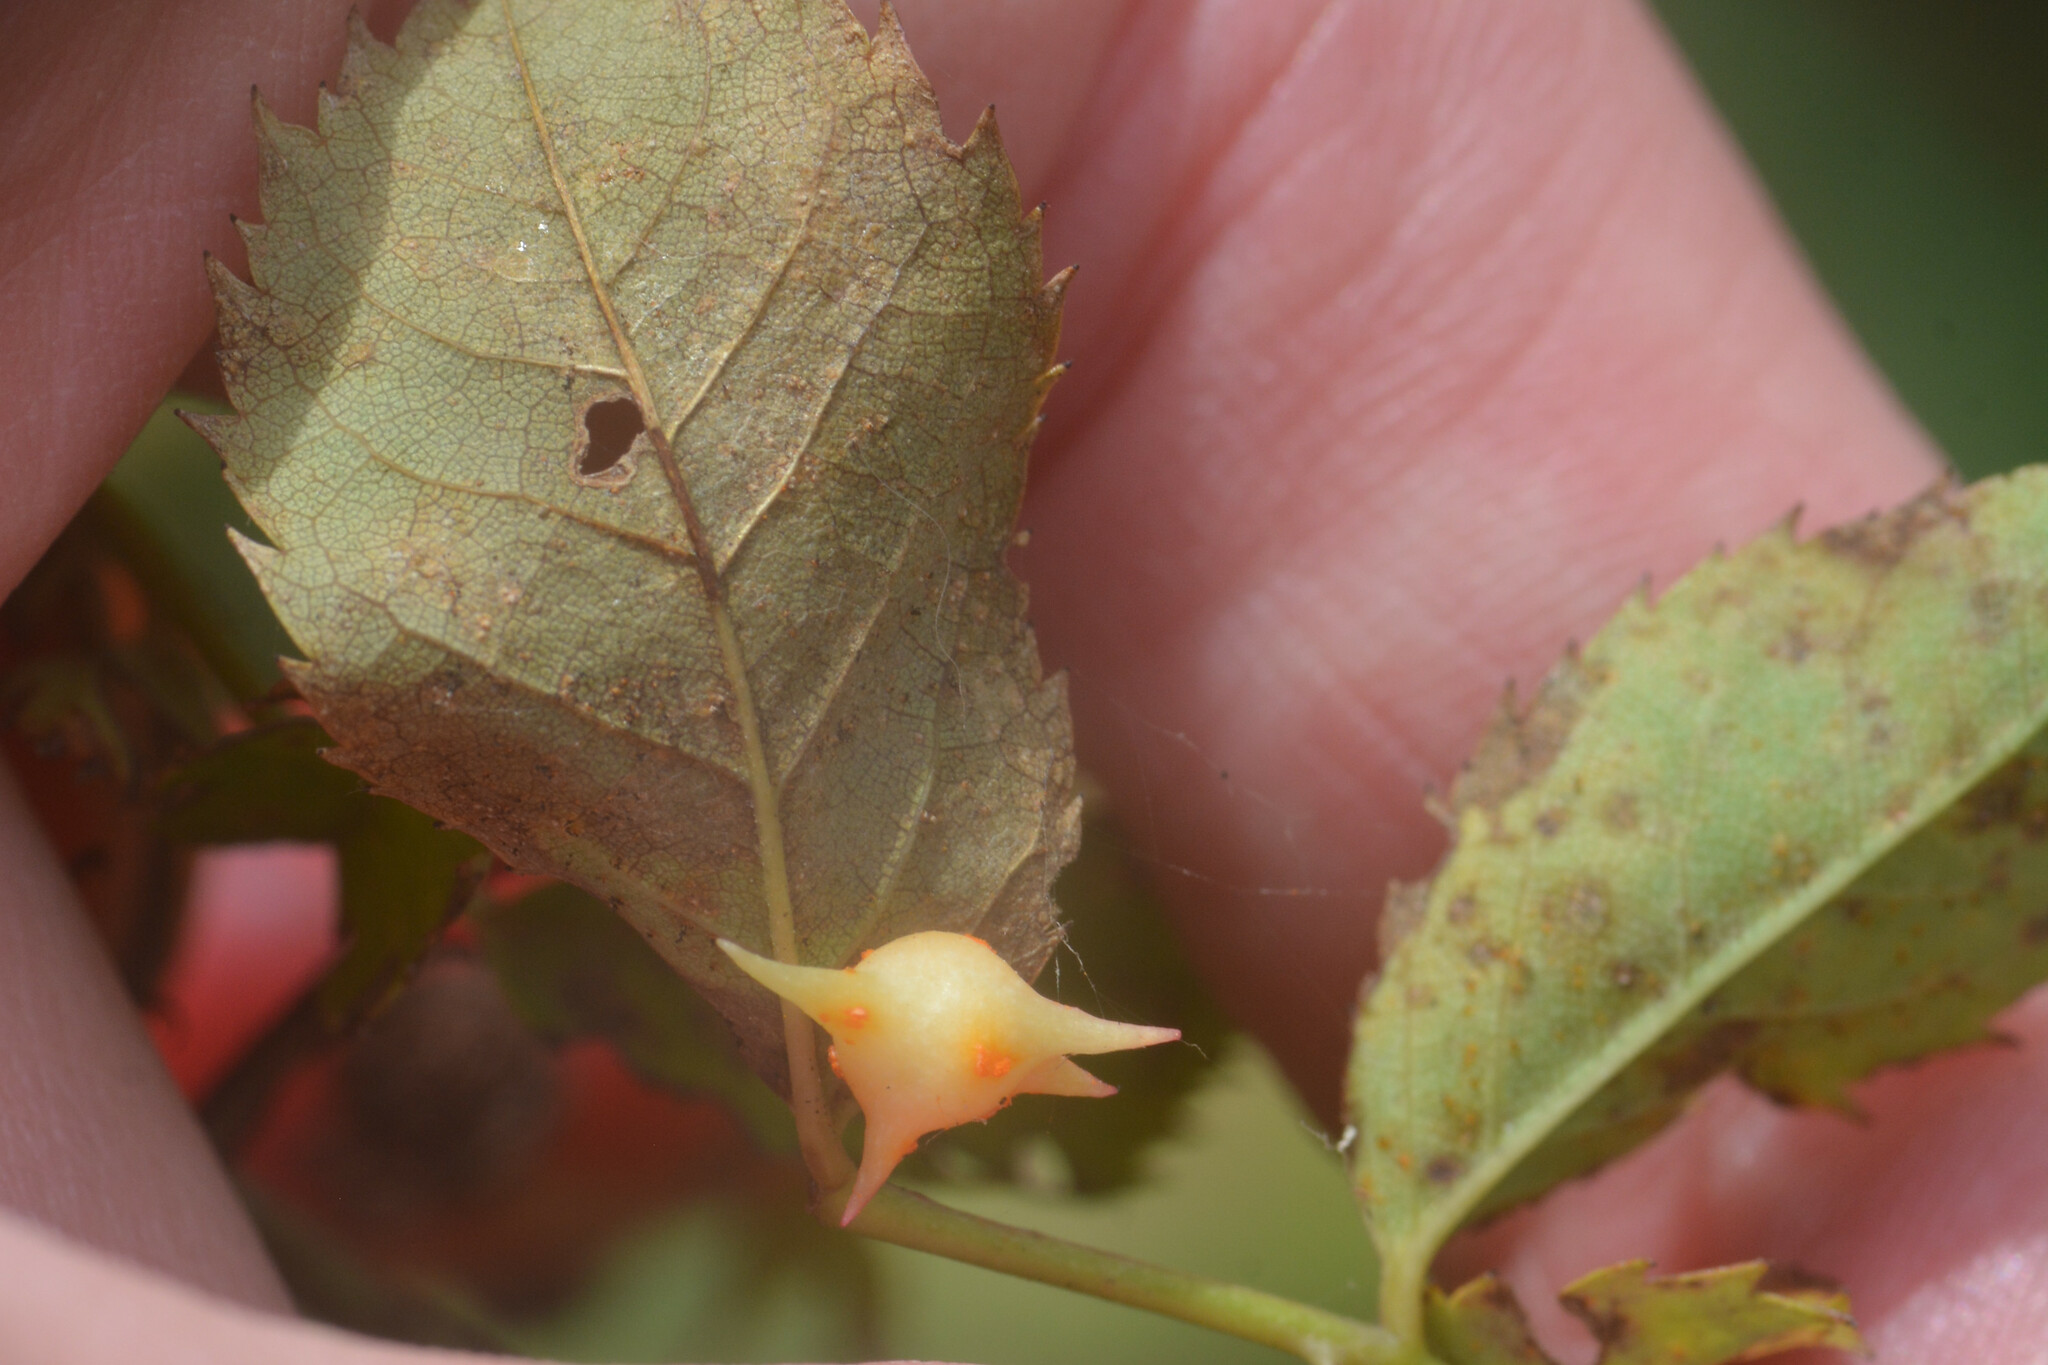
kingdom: Animalia
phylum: Arthropoda
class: Insecta
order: Hymenoptera
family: Cynipidae
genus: Diplolepis
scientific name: Diplolepis nervosa
